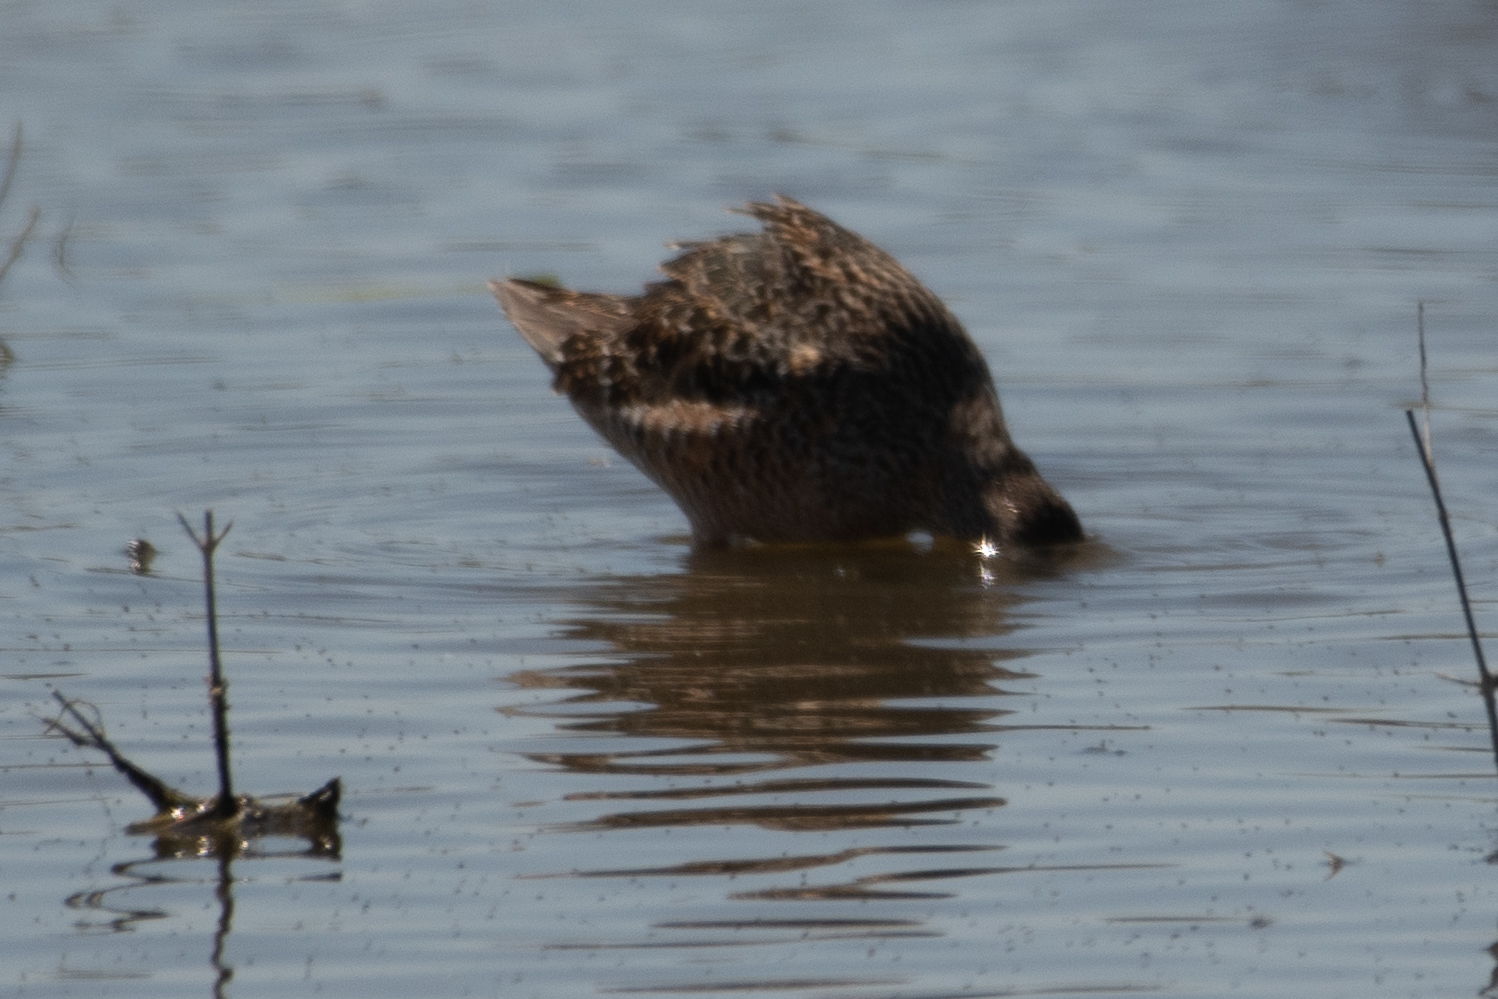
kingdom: Animalia
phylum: Chordata
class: Aves
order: Charadriiformes
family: Scolopacidae
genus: Limnodromus
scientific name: Limnodromus scolopaceus
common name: Long-billed dowitcher
